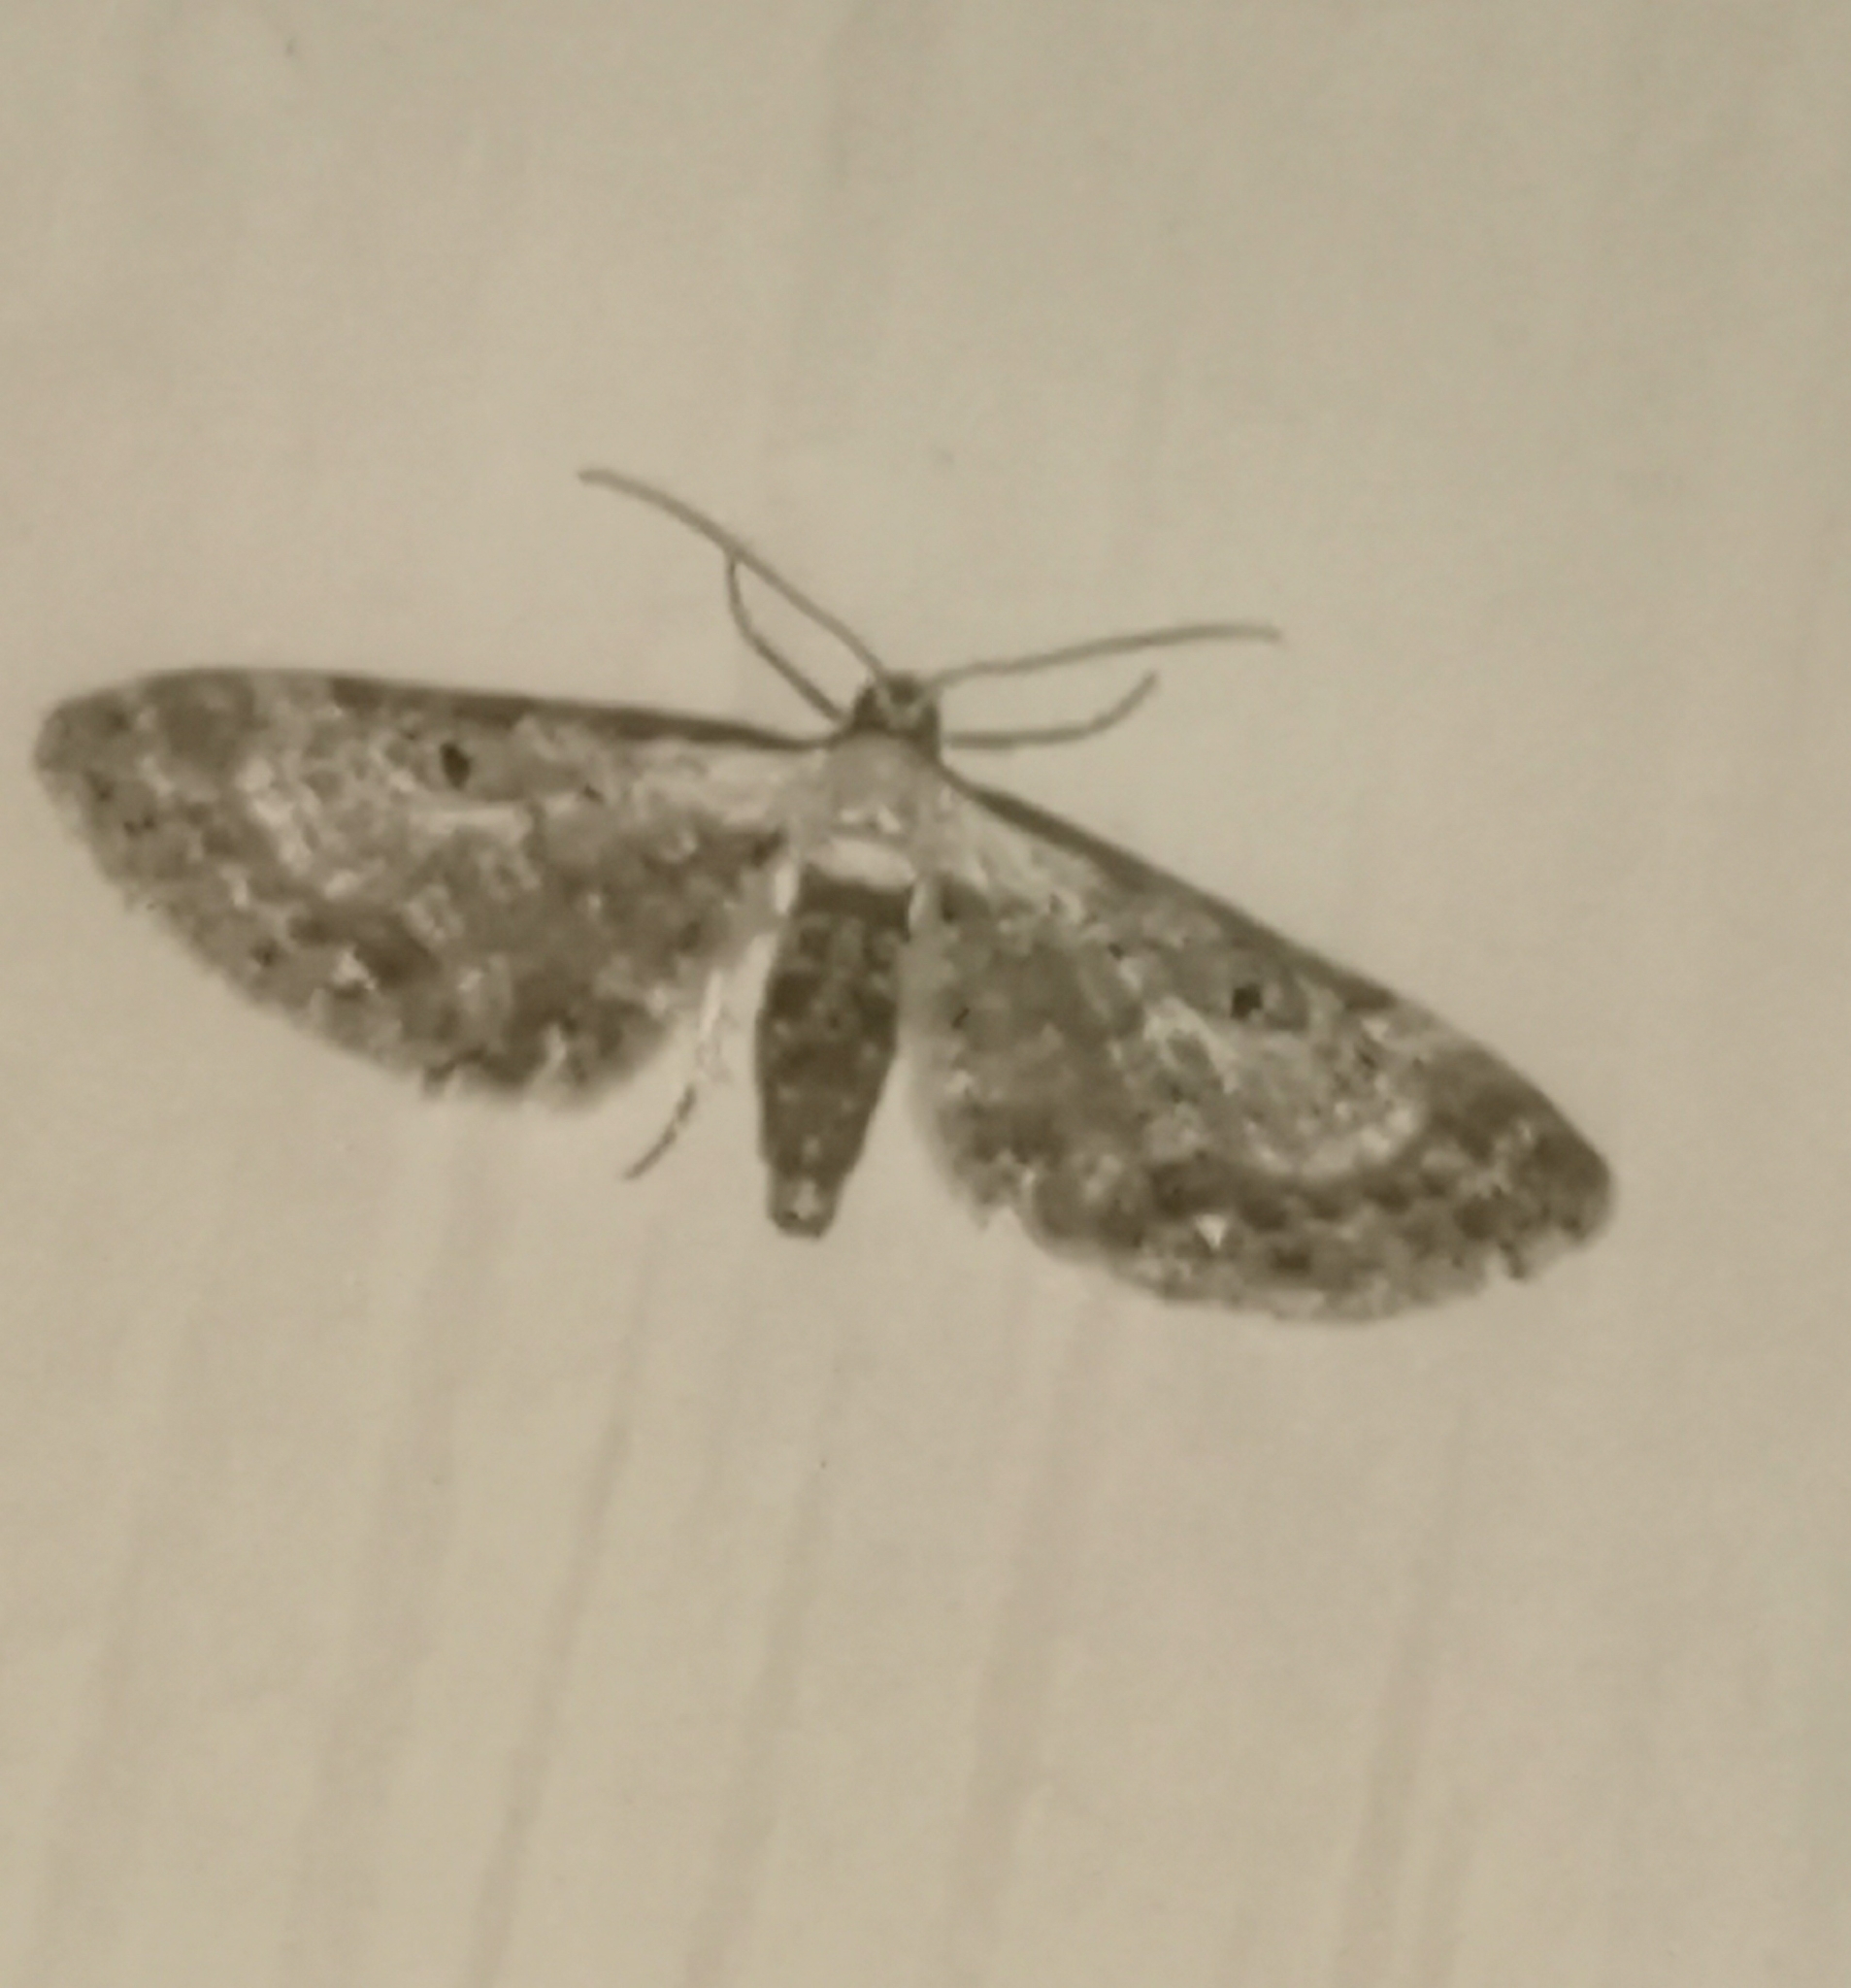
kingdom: Animalia
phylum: Arthropoda
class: Insecta
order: Lepidoptera
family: Geometridae
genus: Eupithecia
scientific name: Eupithecia succenturiata
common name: Bordered pug
